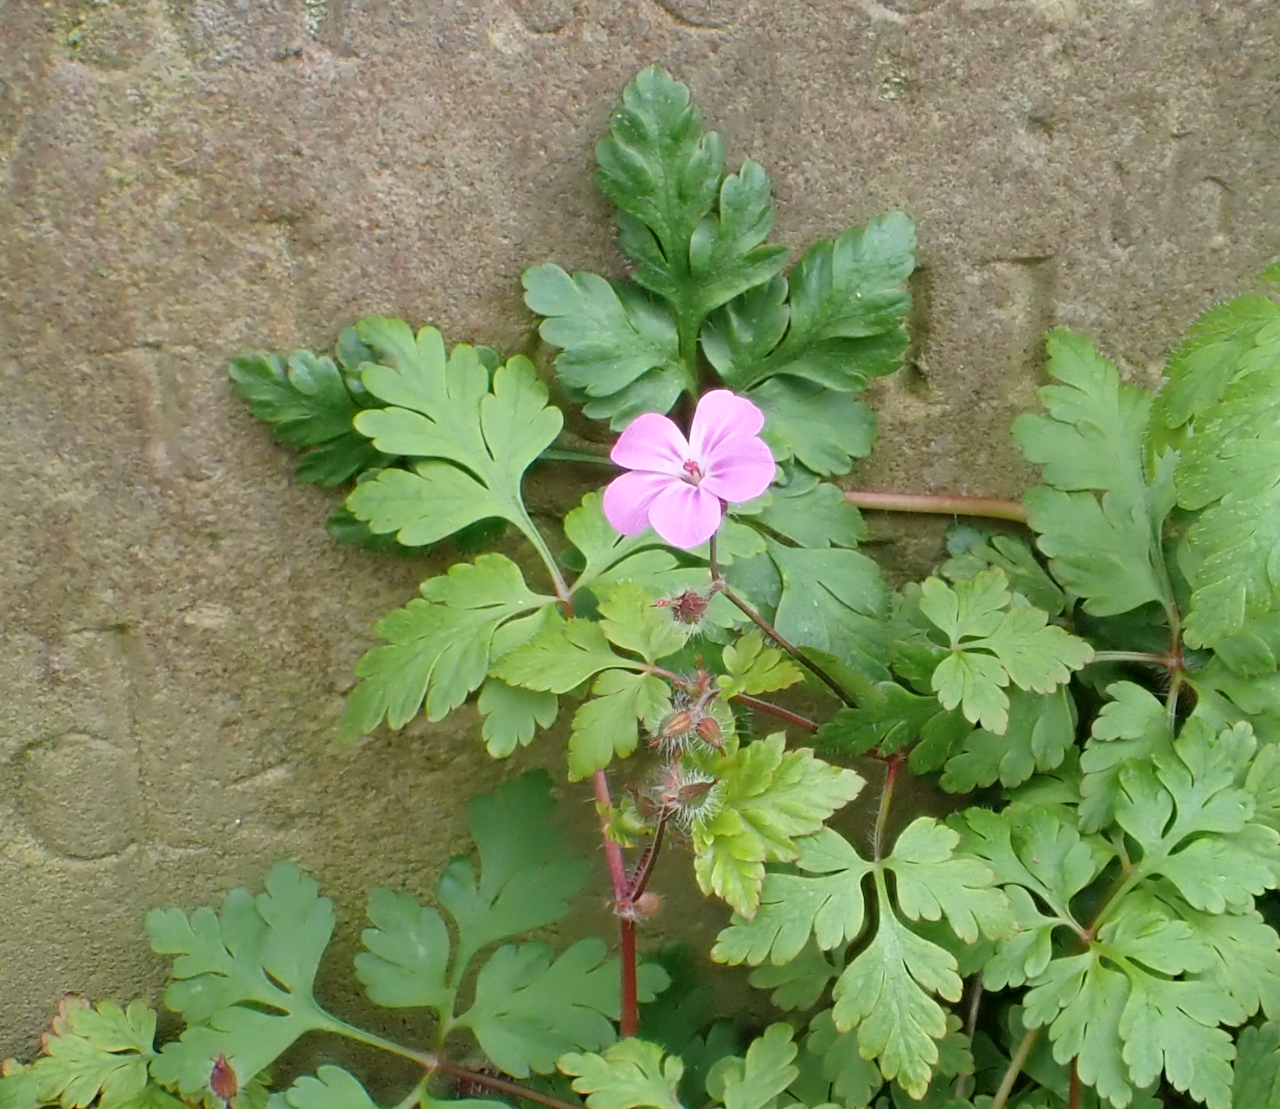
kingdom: Plantae
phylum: Tracheophyta
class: Magnoliopsida
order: Geraniales
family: Geraniaceae
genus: Geranium
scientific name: Geranium robertianum
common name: Herb-robert
